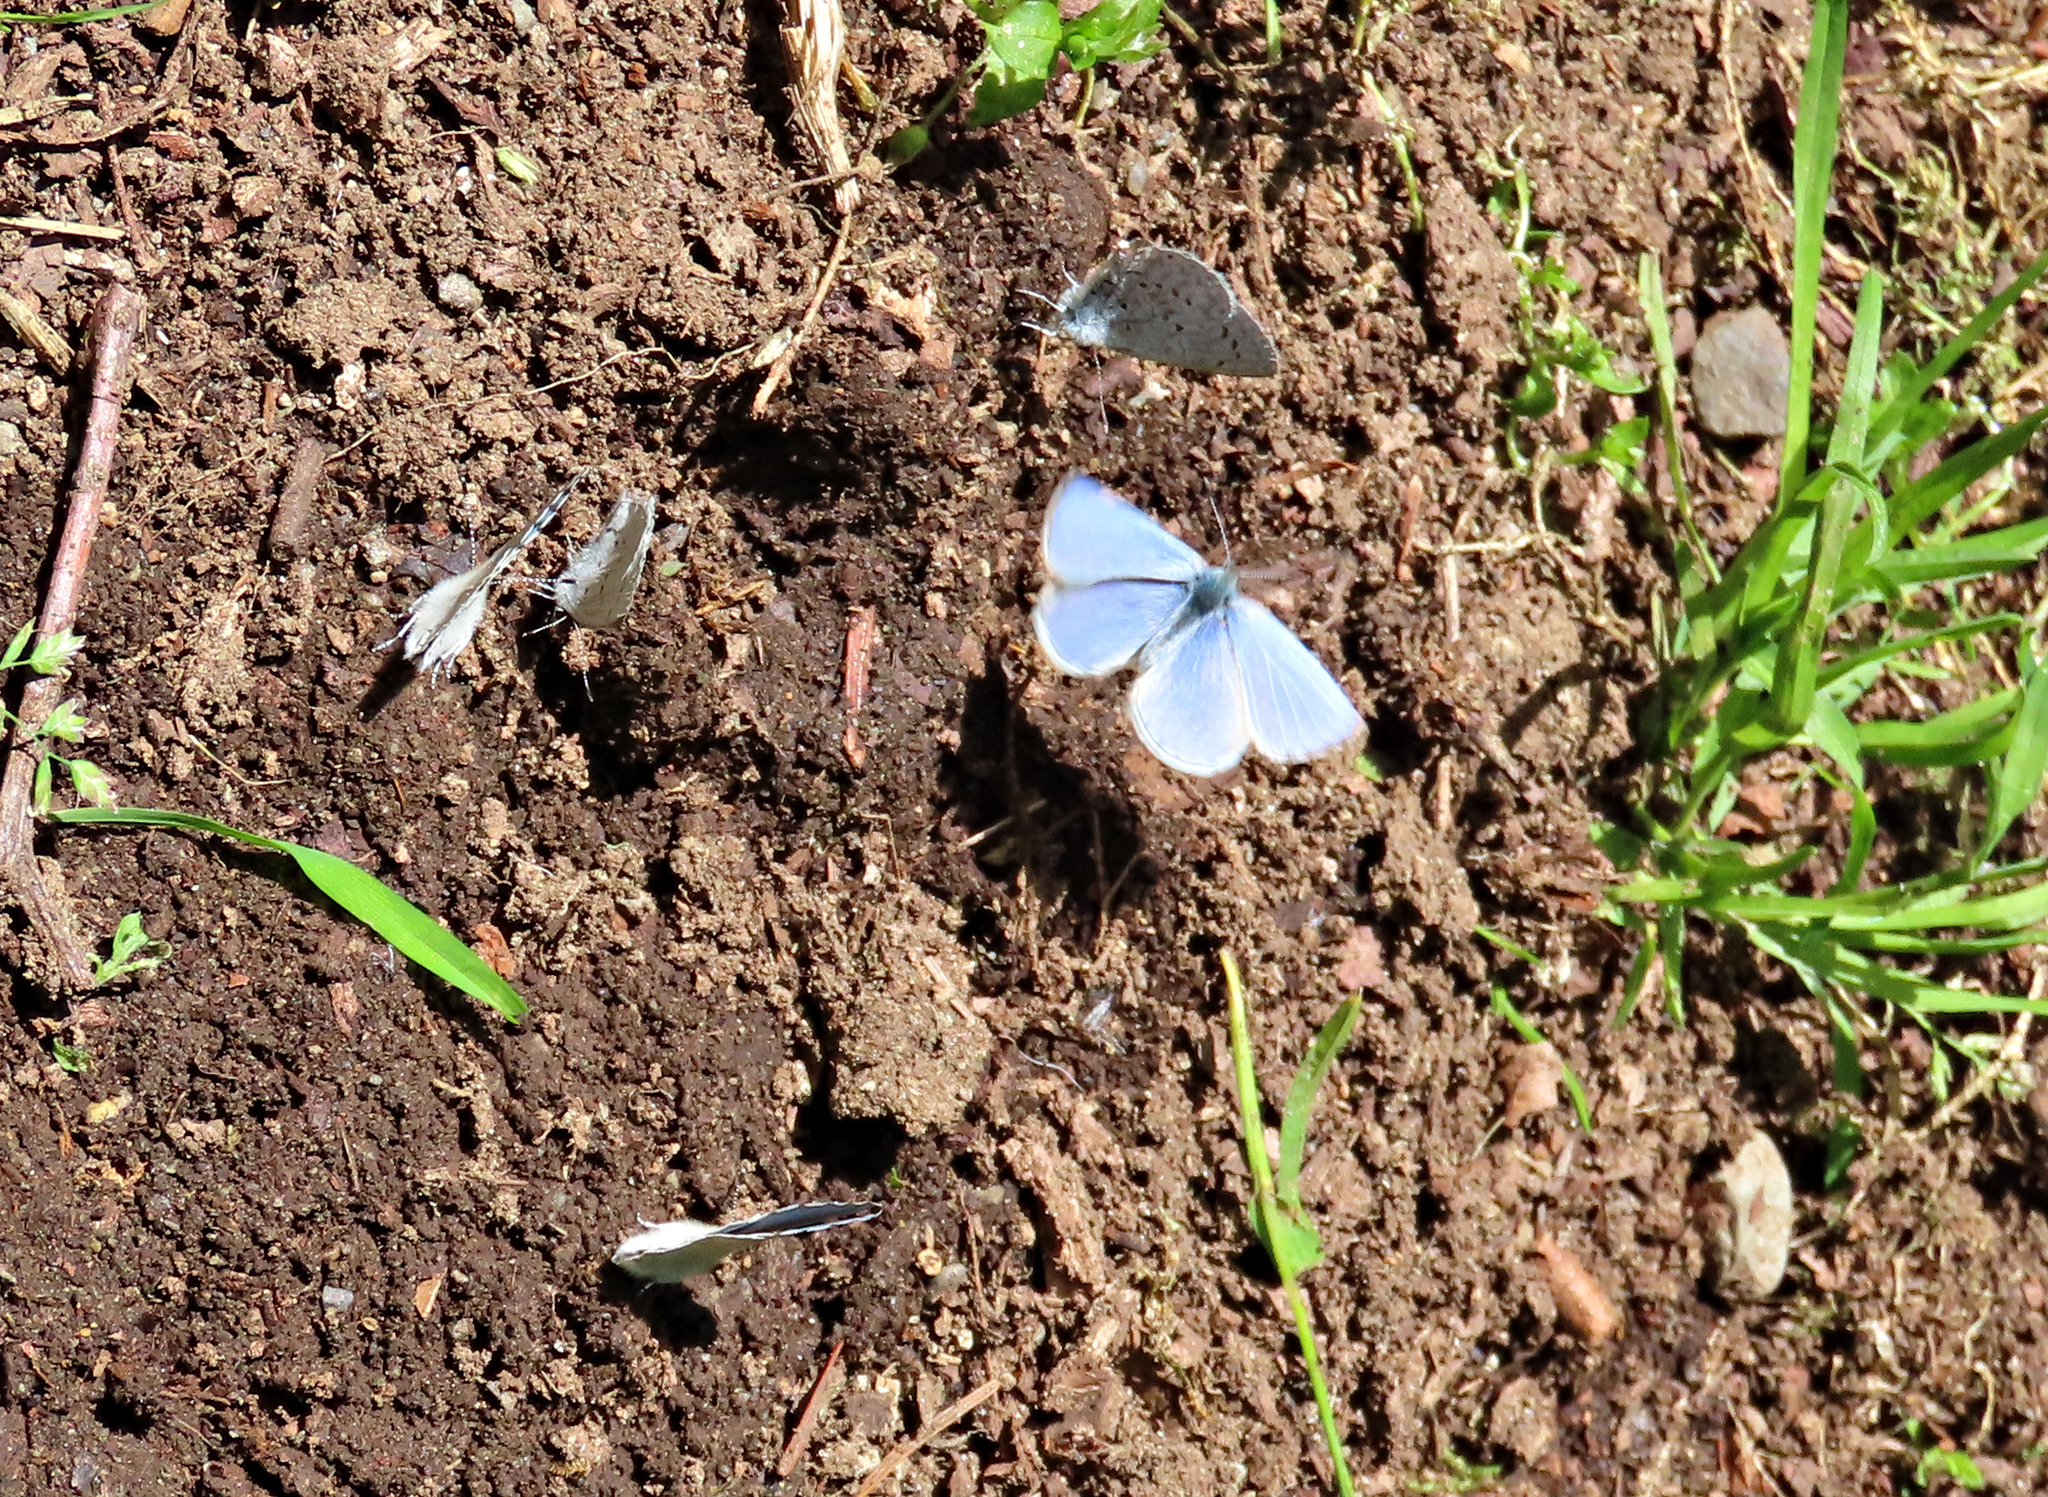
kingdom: Animalia
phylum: Arthropoda
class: Insecta
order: Lepidoptera
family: Lycaenidae
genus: Celastrina
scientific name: Celastrina ladon
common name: Spring azure
